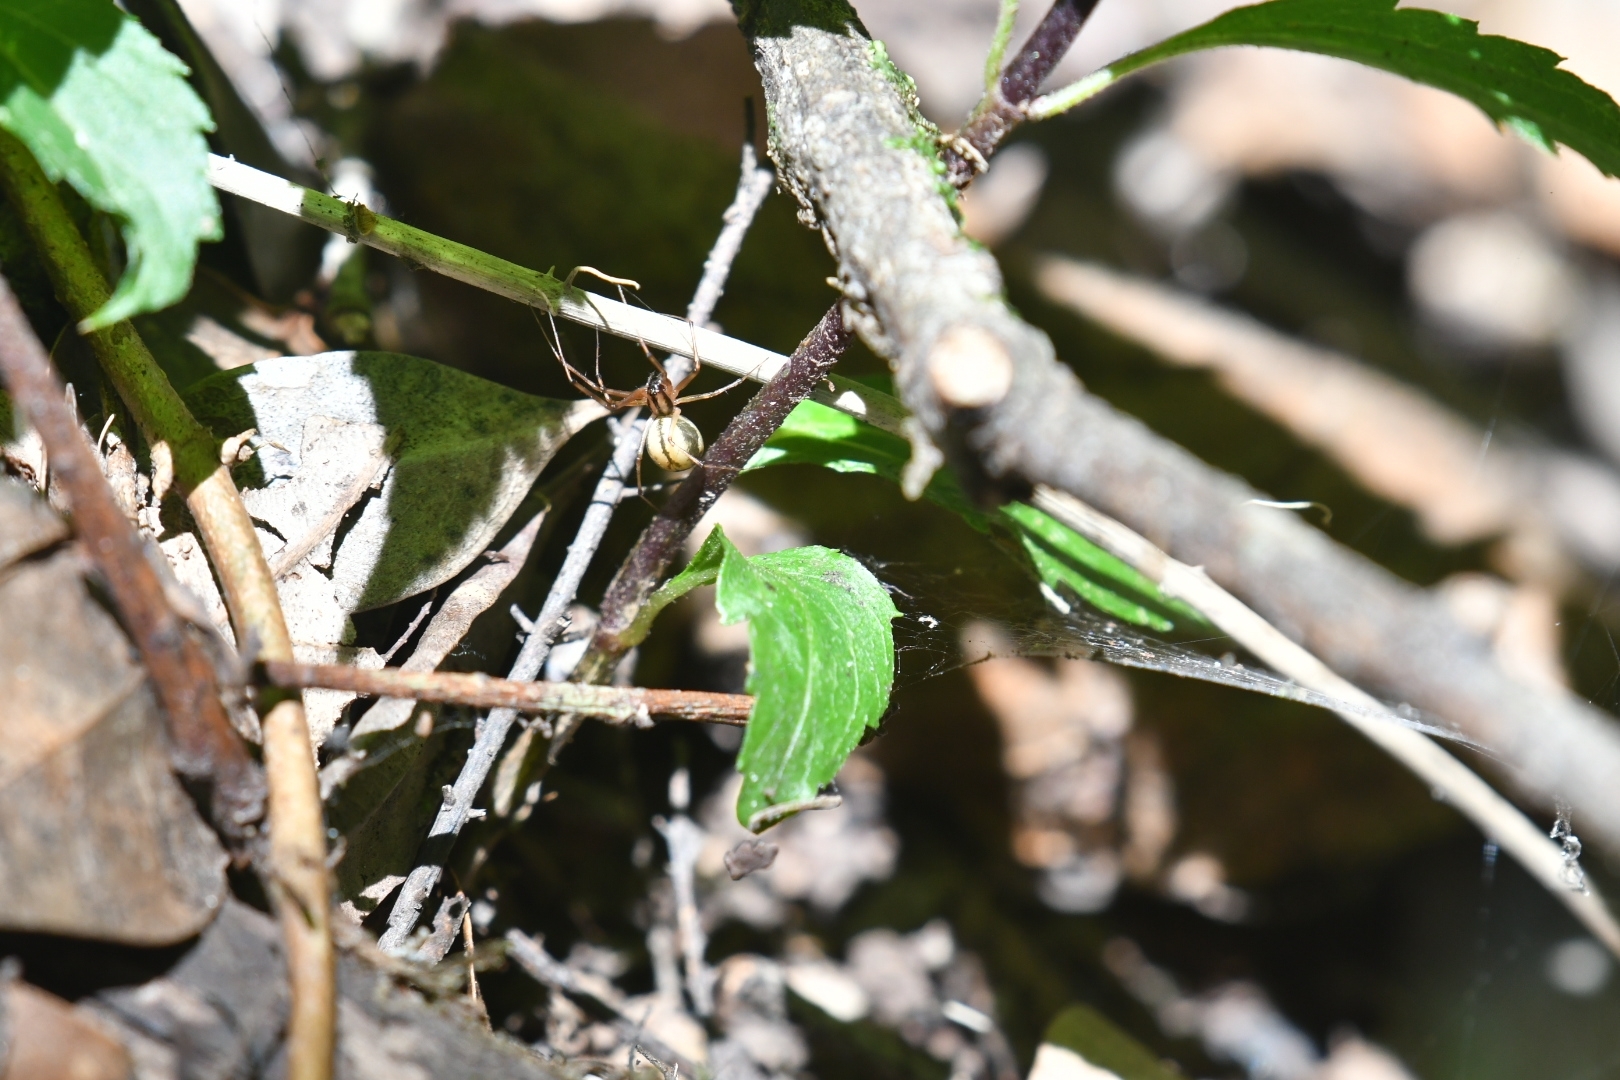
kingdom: Animalia
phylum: Arthropoda
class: Arachnida
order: Araneae
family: Linyphiidae
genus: Microlinyphia
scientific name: Microlinyphia johnsoni
